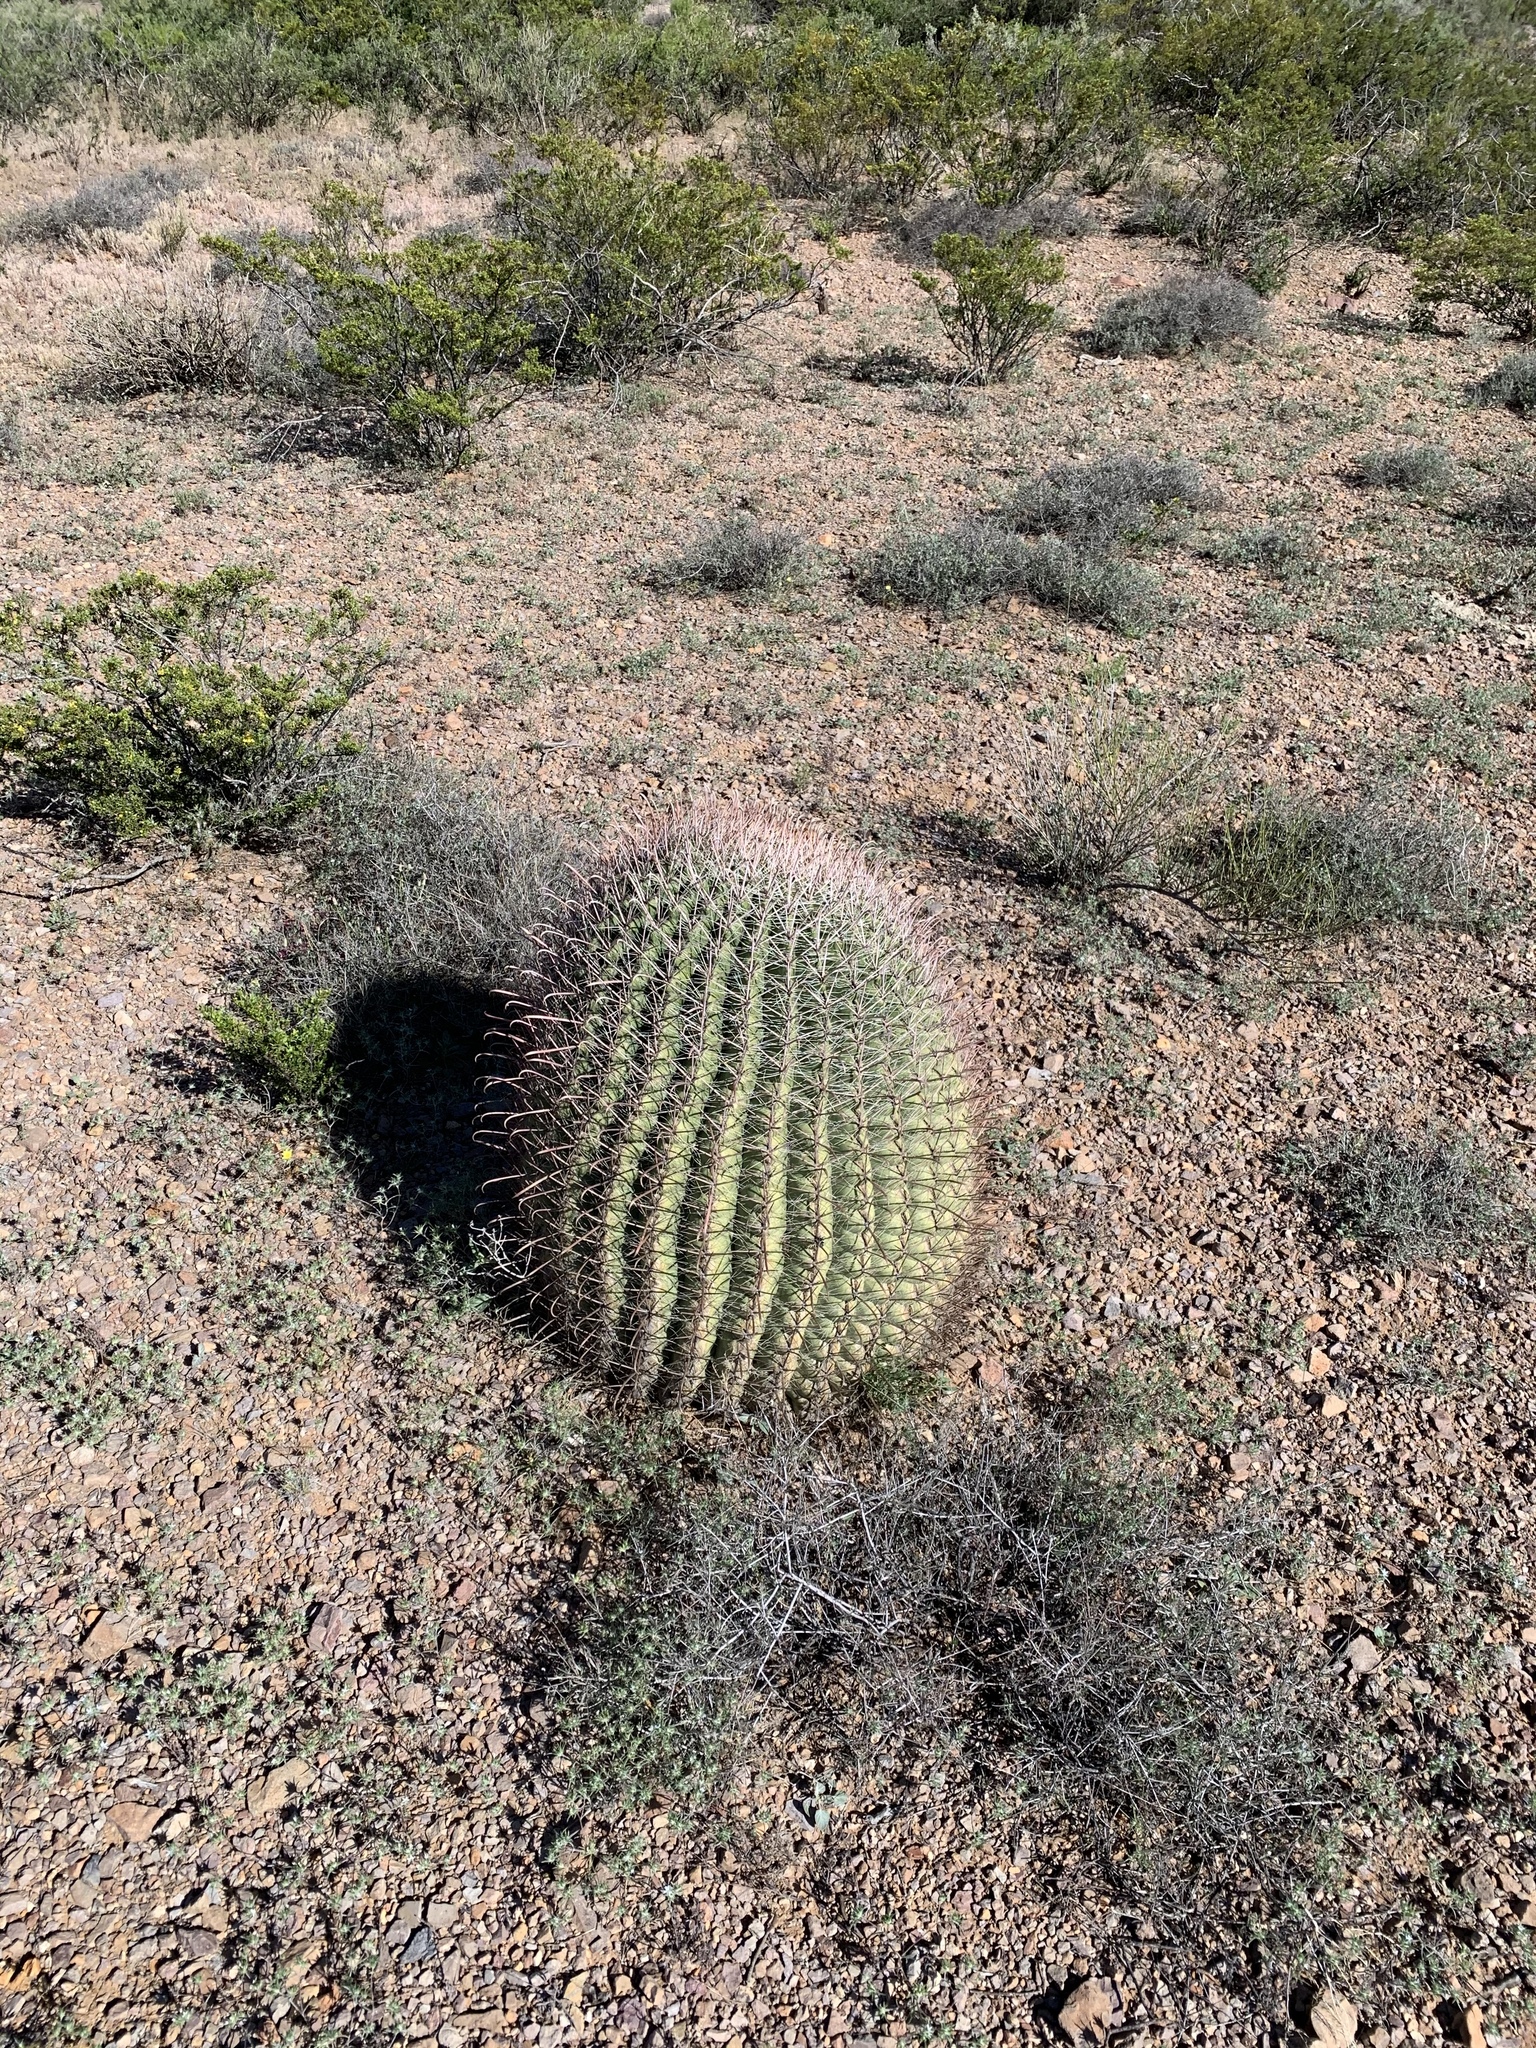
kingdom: Plantae
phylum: Tracheophyta
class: Magnoliopsida
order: Caryophyllales
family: Cactaceae
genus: Ferocactus
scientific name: Ferocactus wislizeni
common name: Candy barrel cactus
